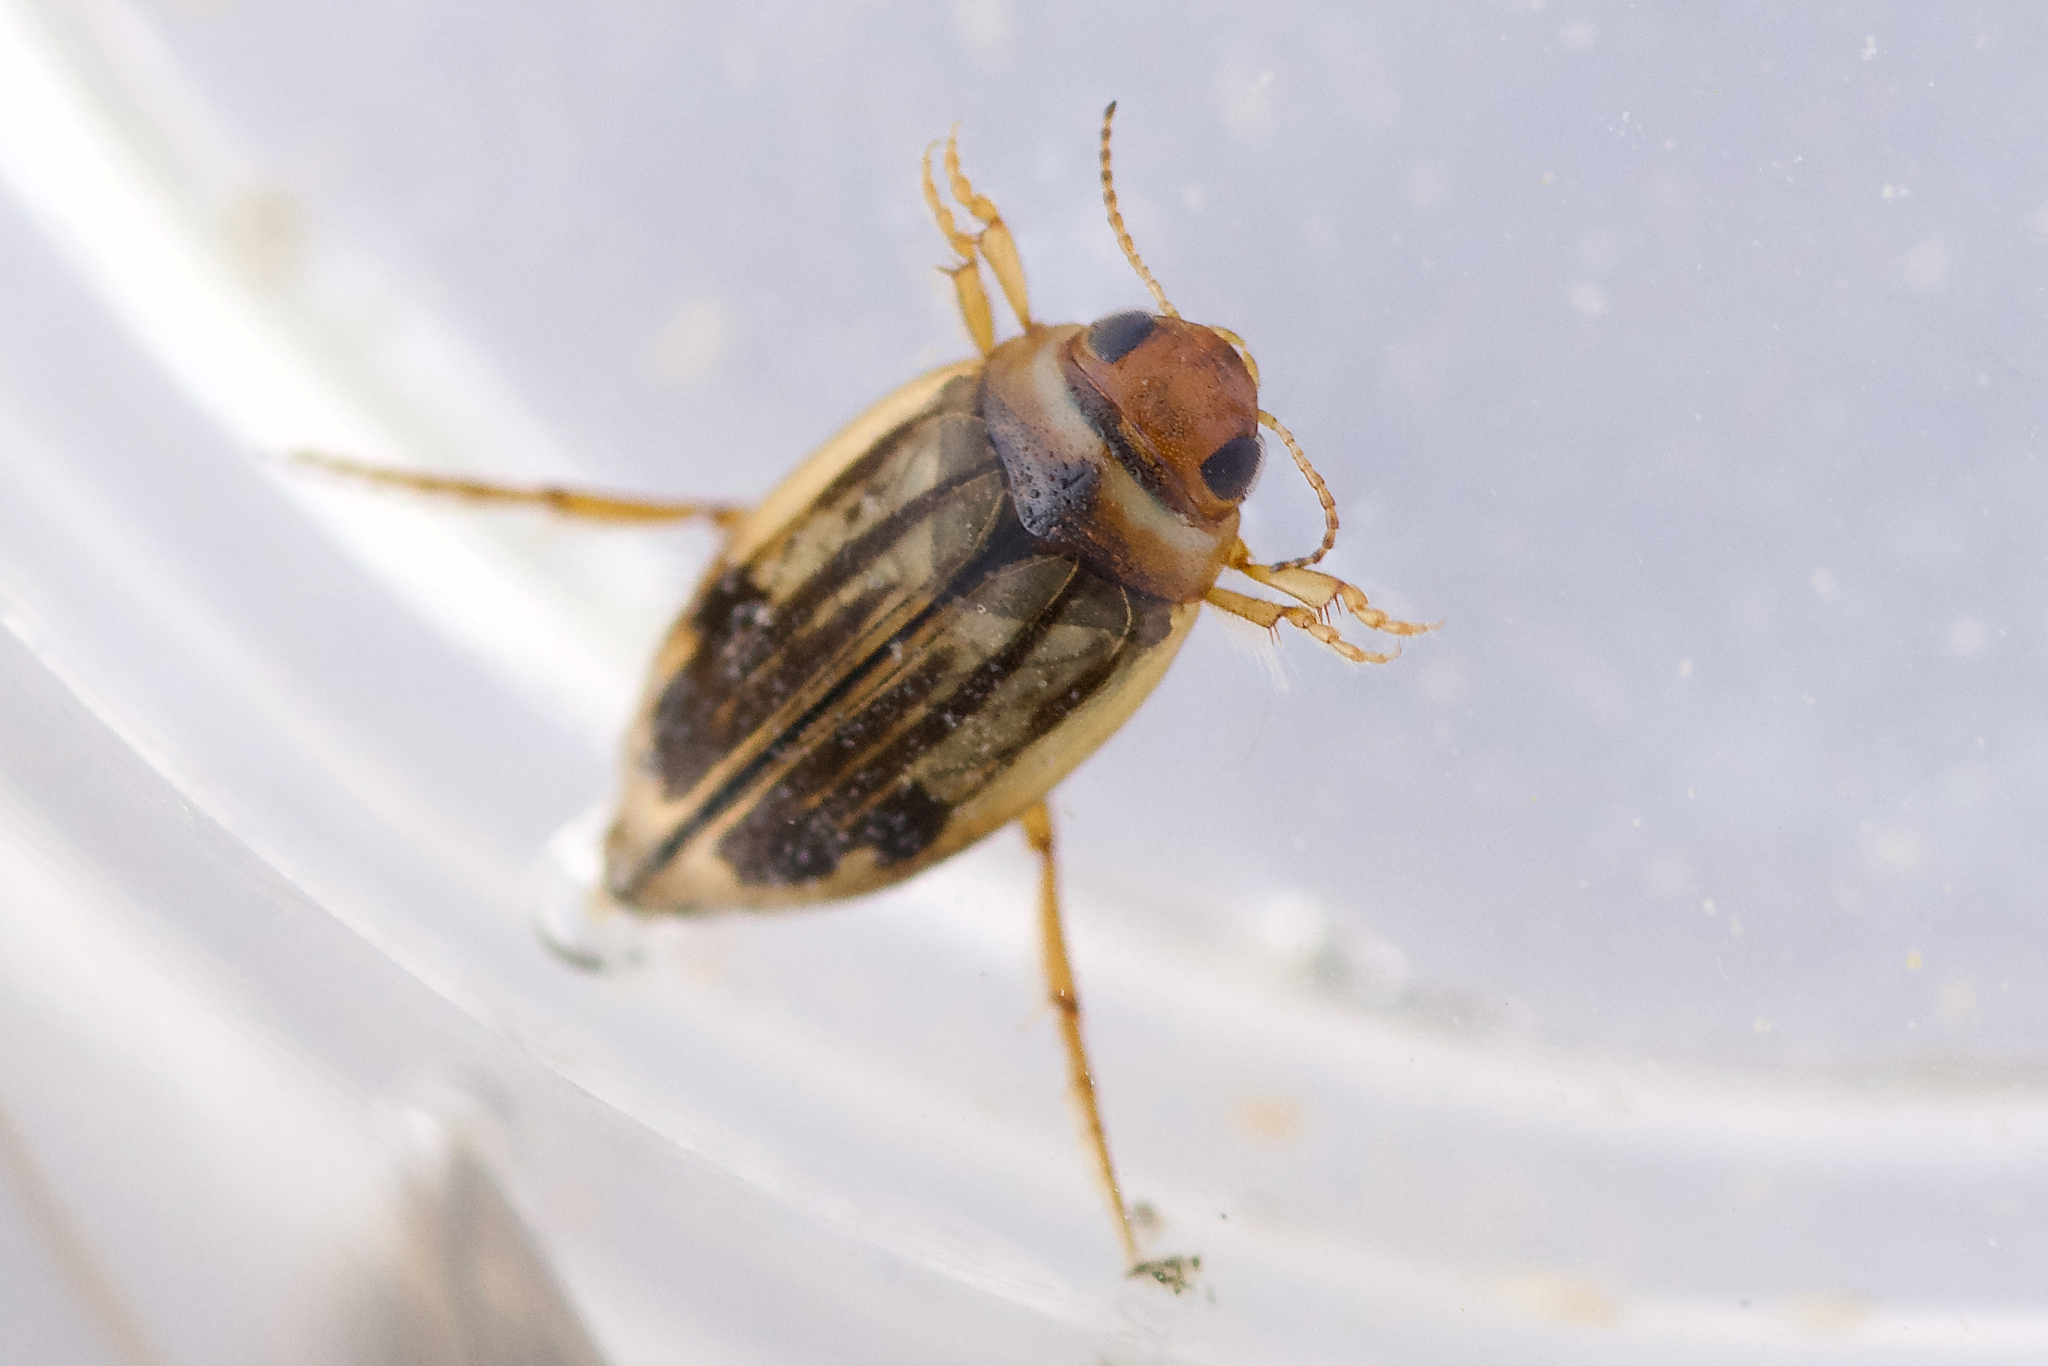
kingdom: Animalia
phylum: Arthropoda
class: Insecta
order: Coleoptera
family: Dytiscidae
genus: Hygrotus
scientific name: Hygrotus nubilus
